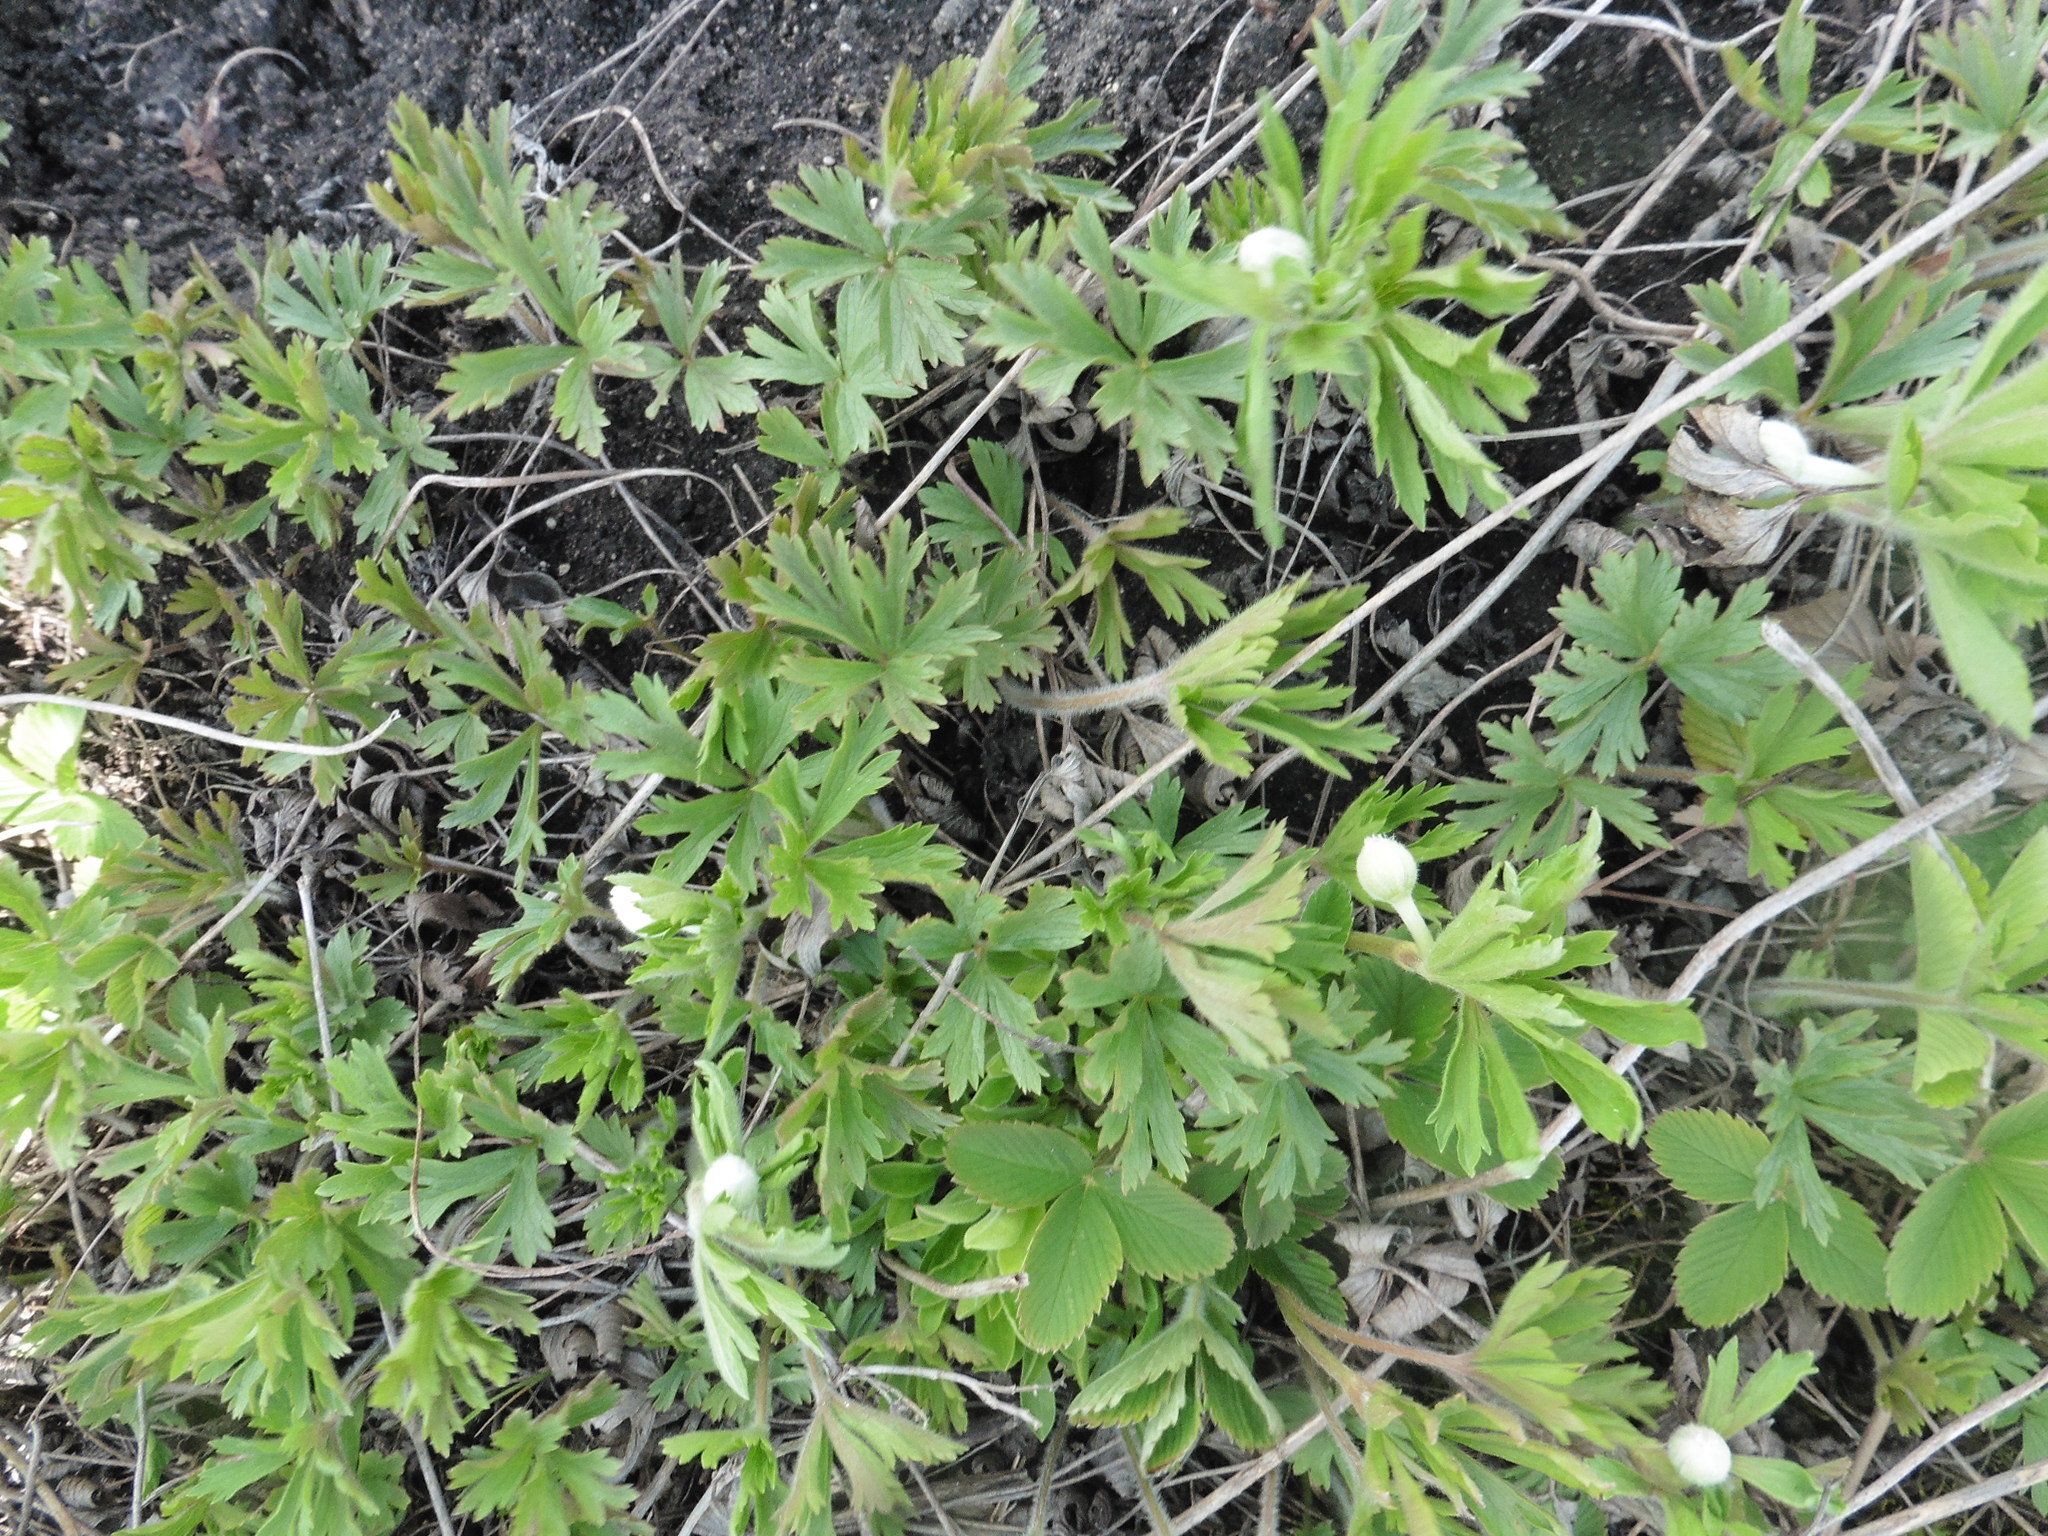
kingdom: Plantae
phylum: Tracheophyta
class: Magnoliopsida
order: Ranunculales
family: Ranunculaceae
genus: Anemone
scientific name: Anemone sylvestris
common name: Snowdrop anemone
